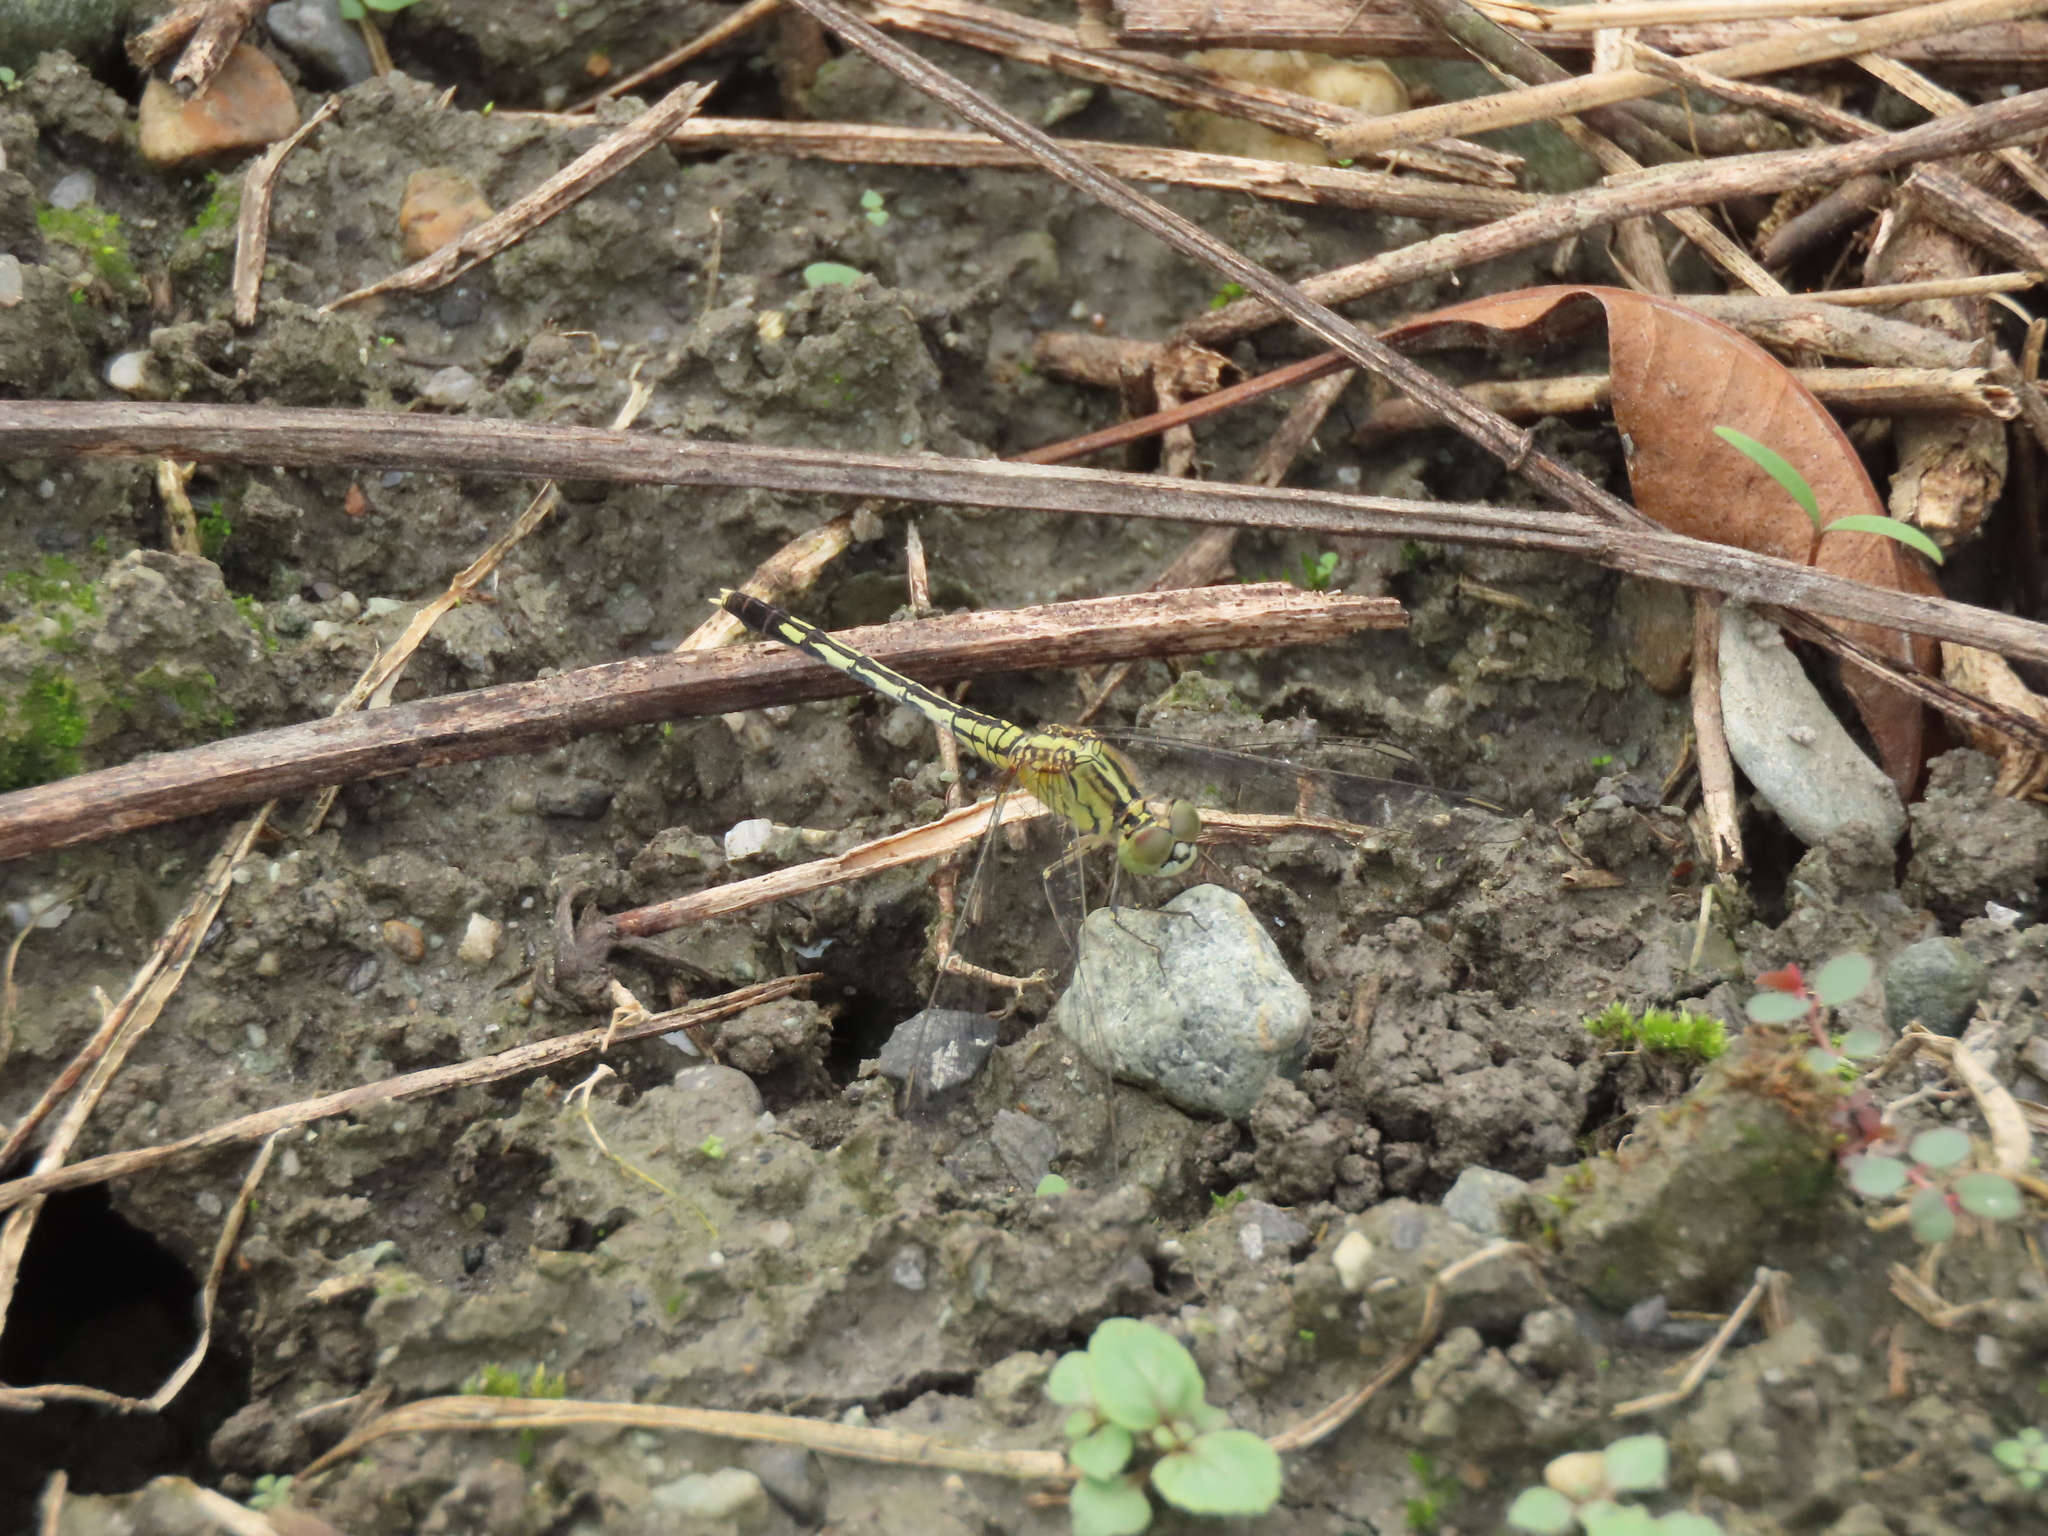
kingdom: Animalia
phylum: Arthropoda
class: Insecta
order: Odonata
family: Libellulidae
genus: Diplacodes
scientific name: Diplacodes trivialis
